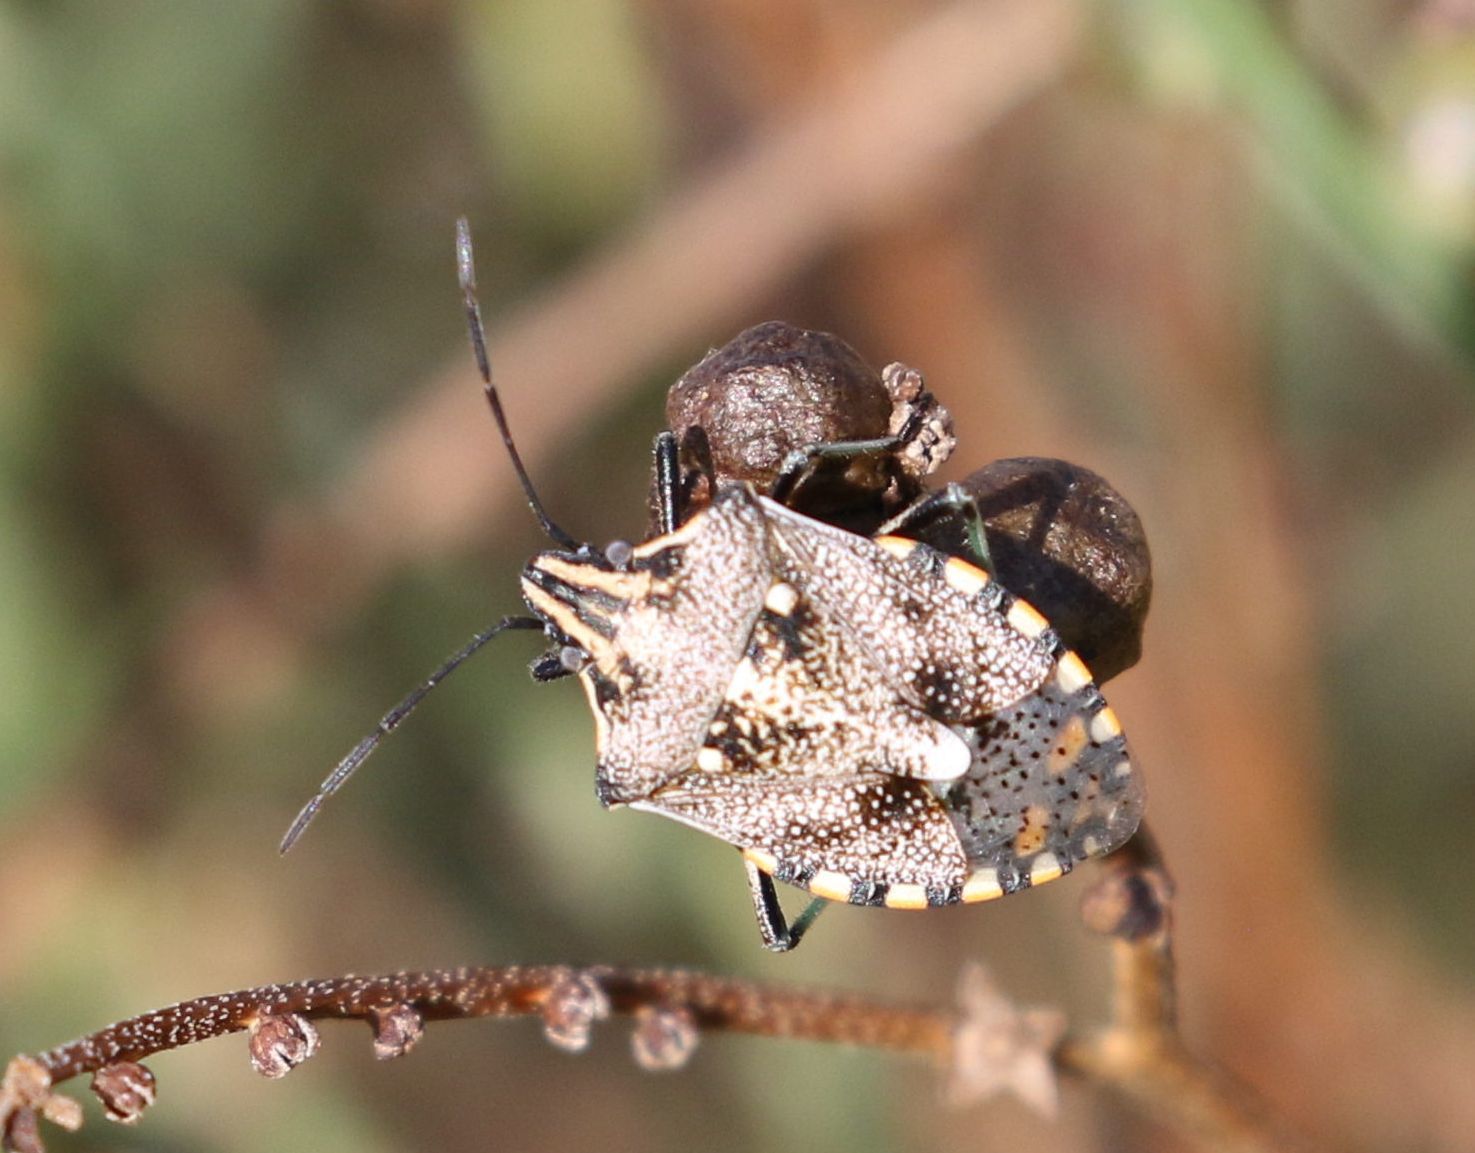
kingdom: Animalia
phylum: Arthropoda
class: Insecta
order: Hemiptera
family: Pentatomidae
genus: Andocides
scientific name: Andocides vittaticeps
